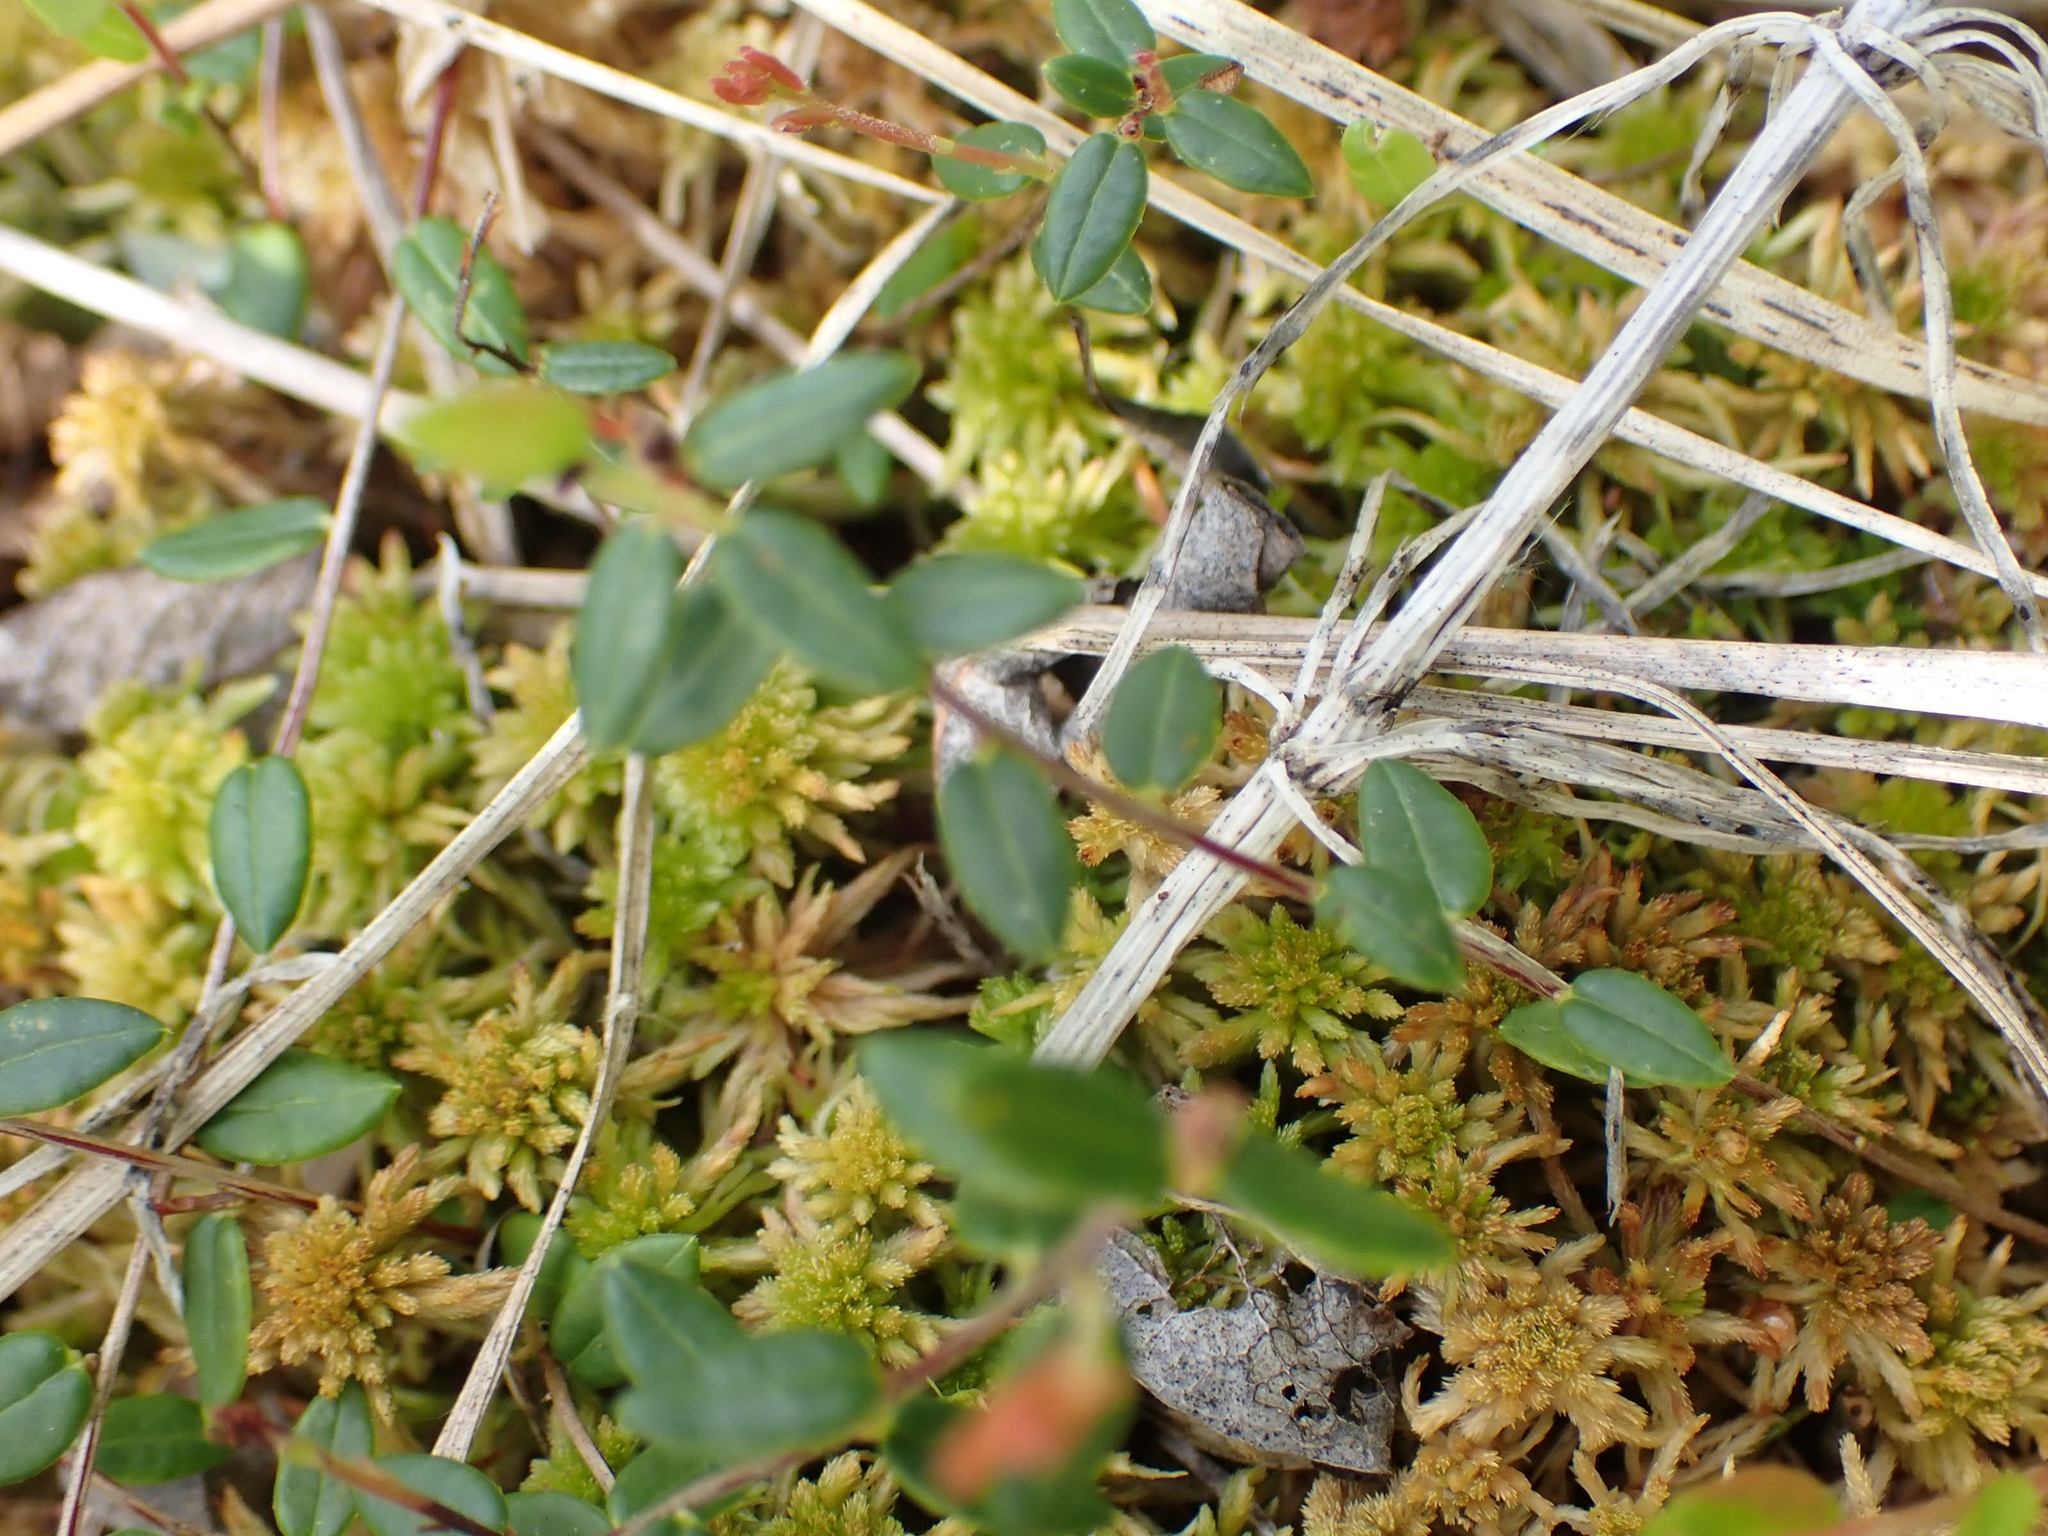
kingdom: Plantae
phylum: Tracheophyta
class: Magnoliopsida
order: Ericales
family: Ericaceae
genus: Vaccinium
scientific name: Vaccinium oxycoccos
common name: Cranberry
